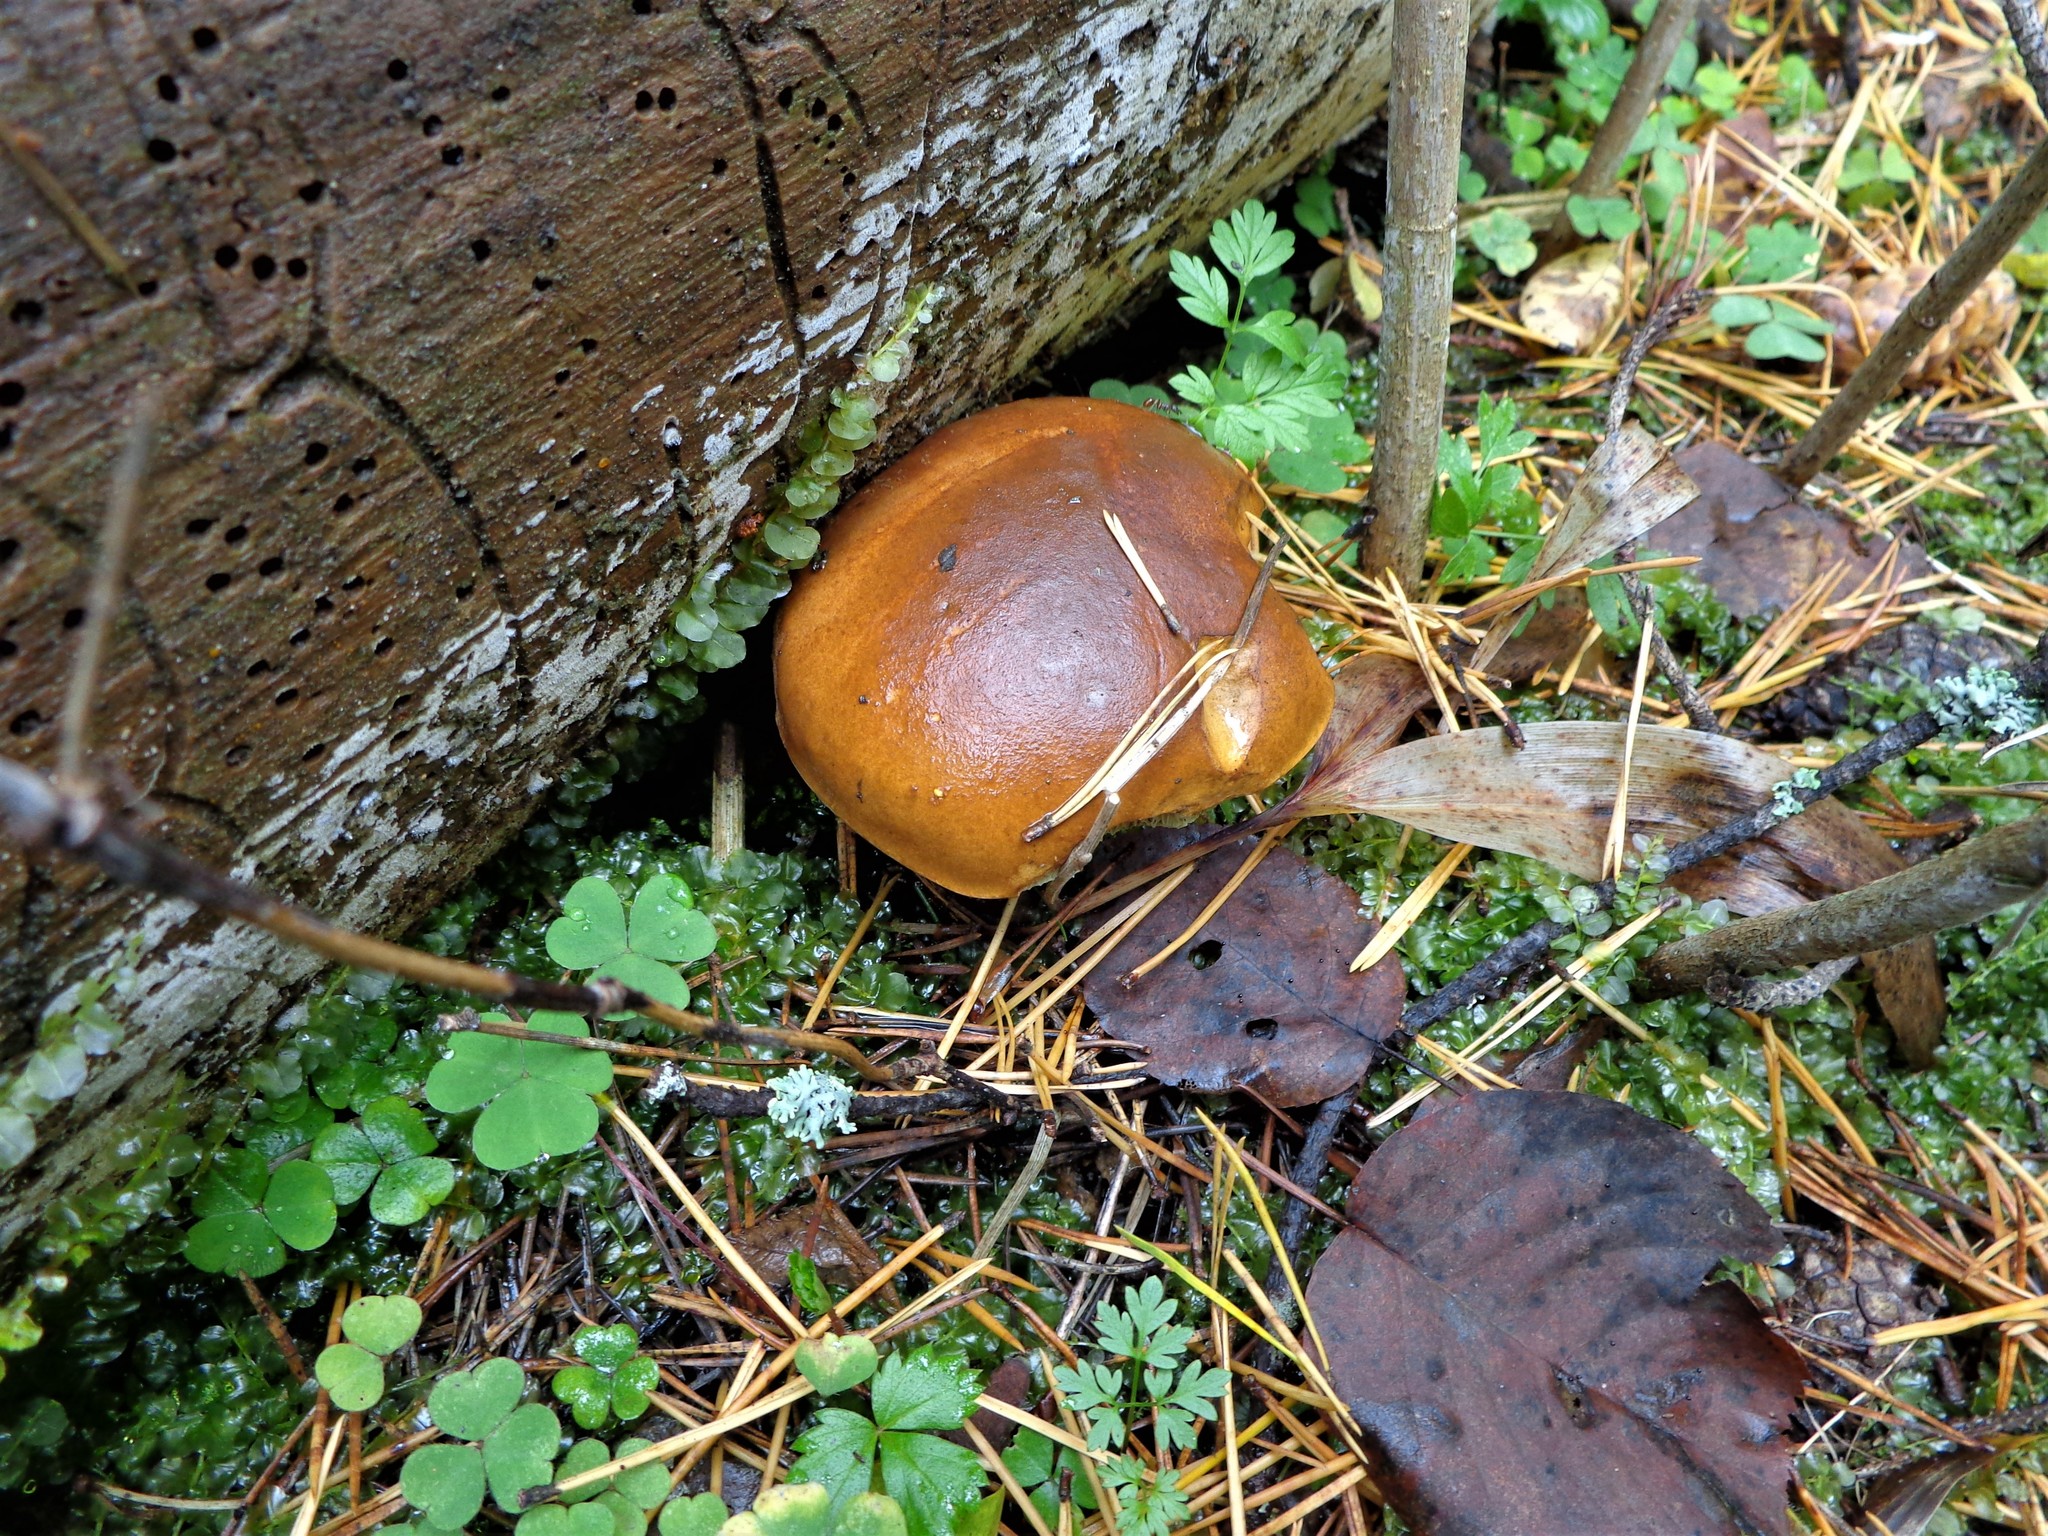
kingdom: Fungi
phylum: Basidiomycota
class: Agaricomycetes
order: Boletales
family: Boletaceae
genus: Imleria
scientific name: Imleria badia
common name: Bay bolete
